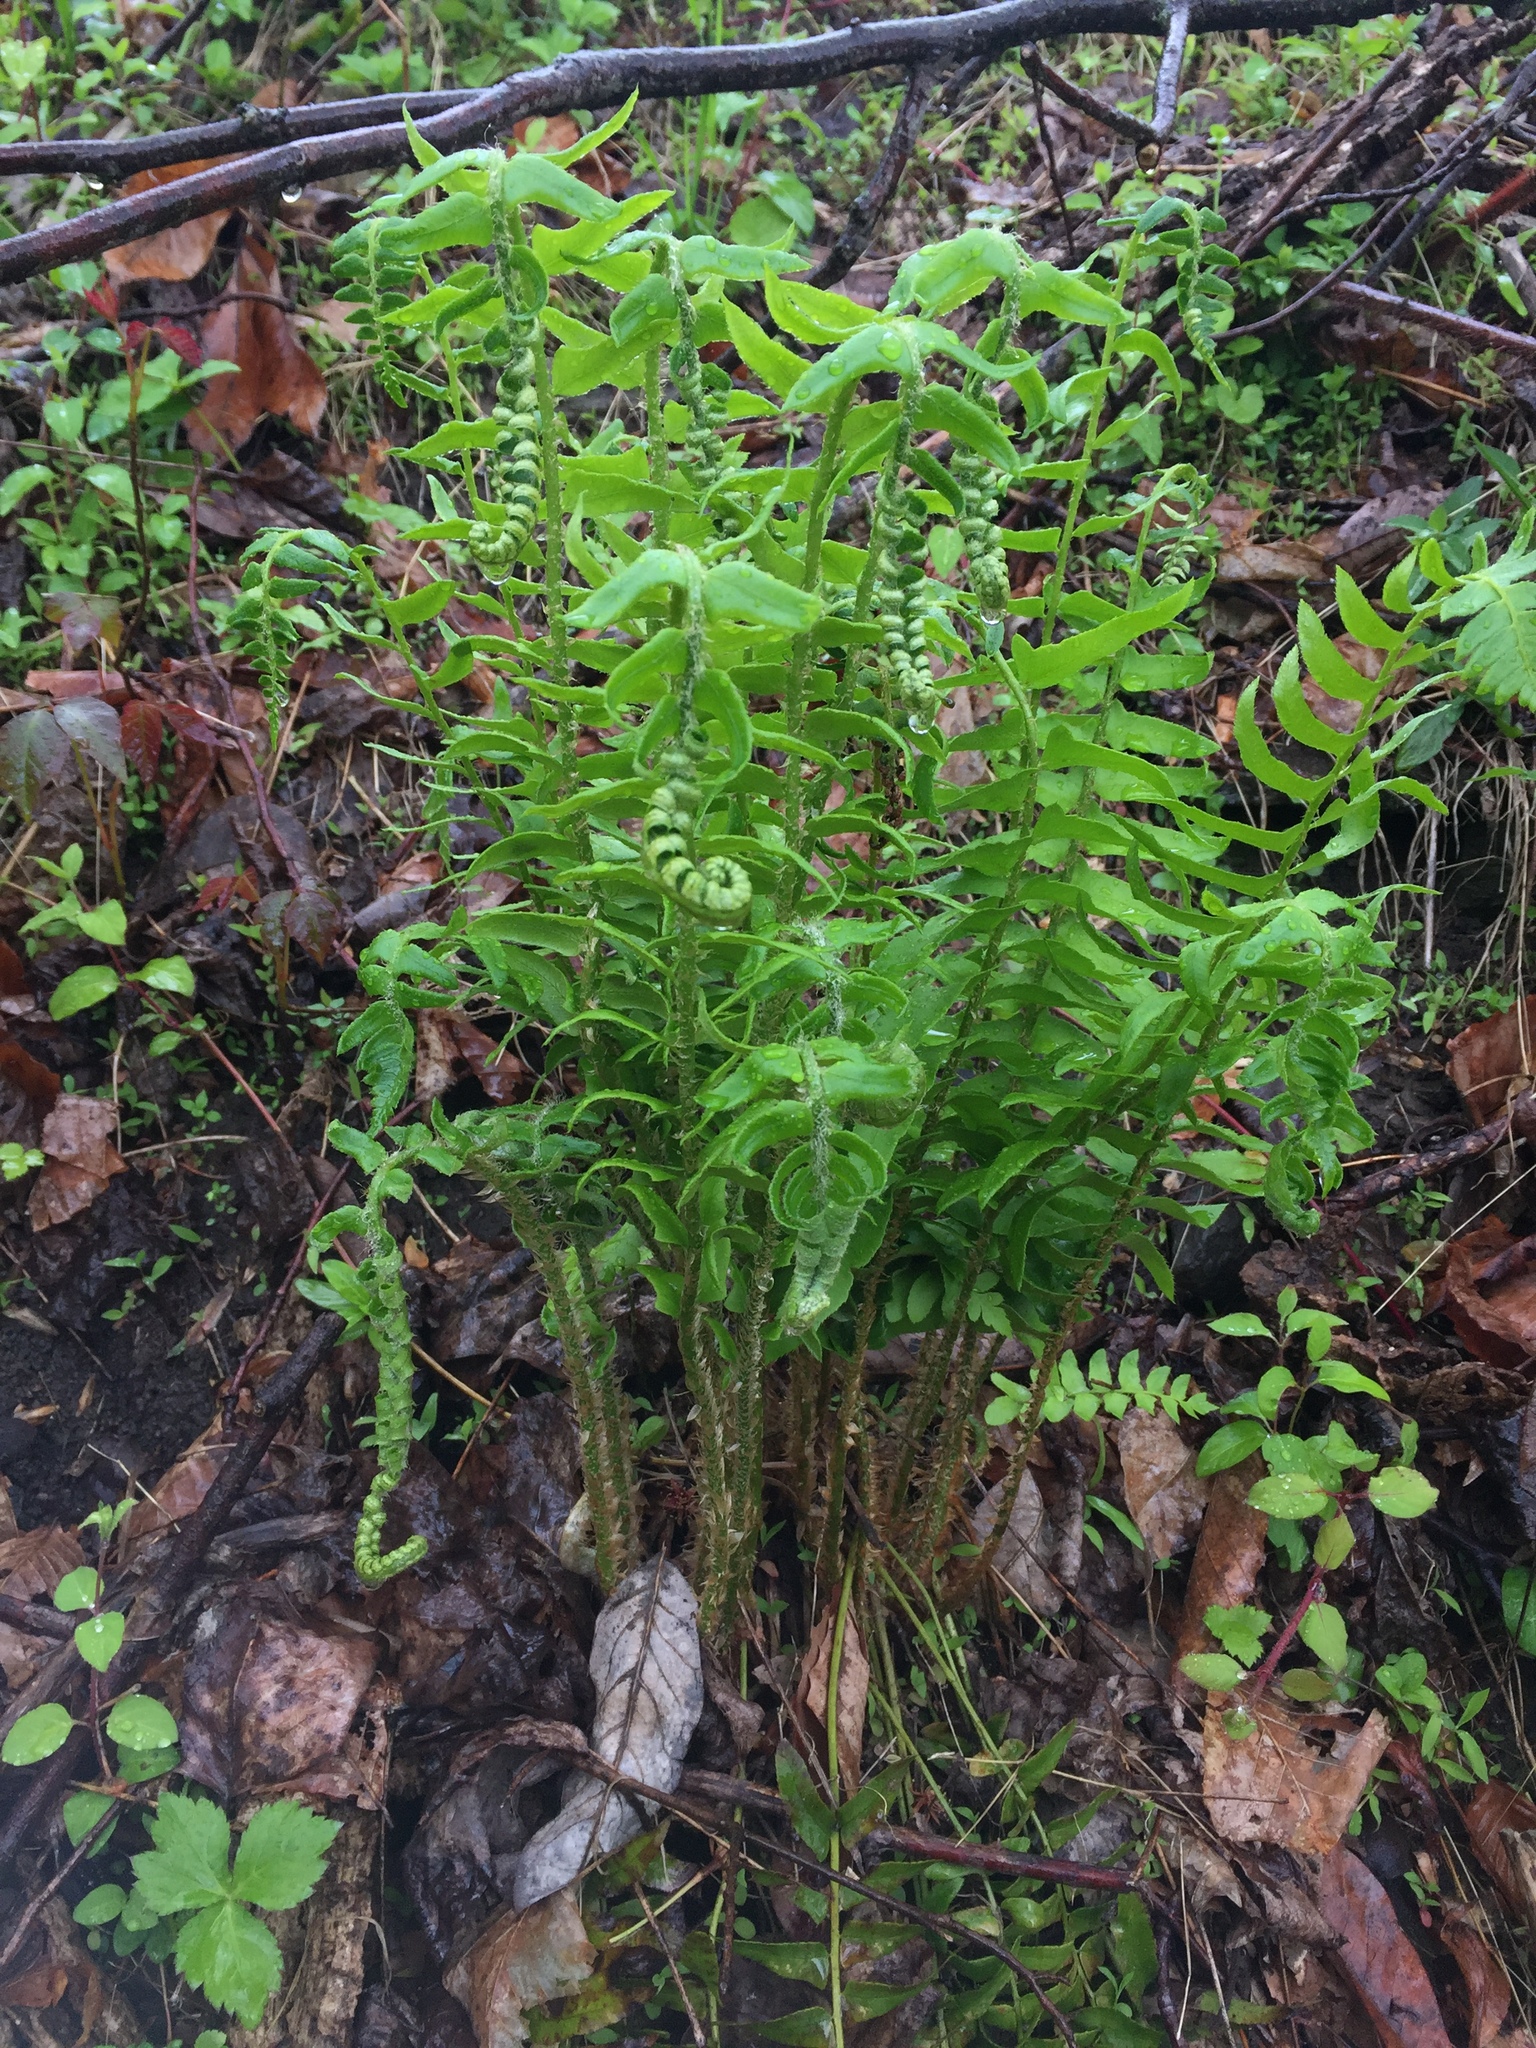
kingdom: Plantae
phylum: Tracheophyta
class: Polypodiopsida
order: Polypodiales
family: Dryopteridaceae
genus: Polystichum
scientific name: Polystichum acrostichoides
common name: Christmas fern
